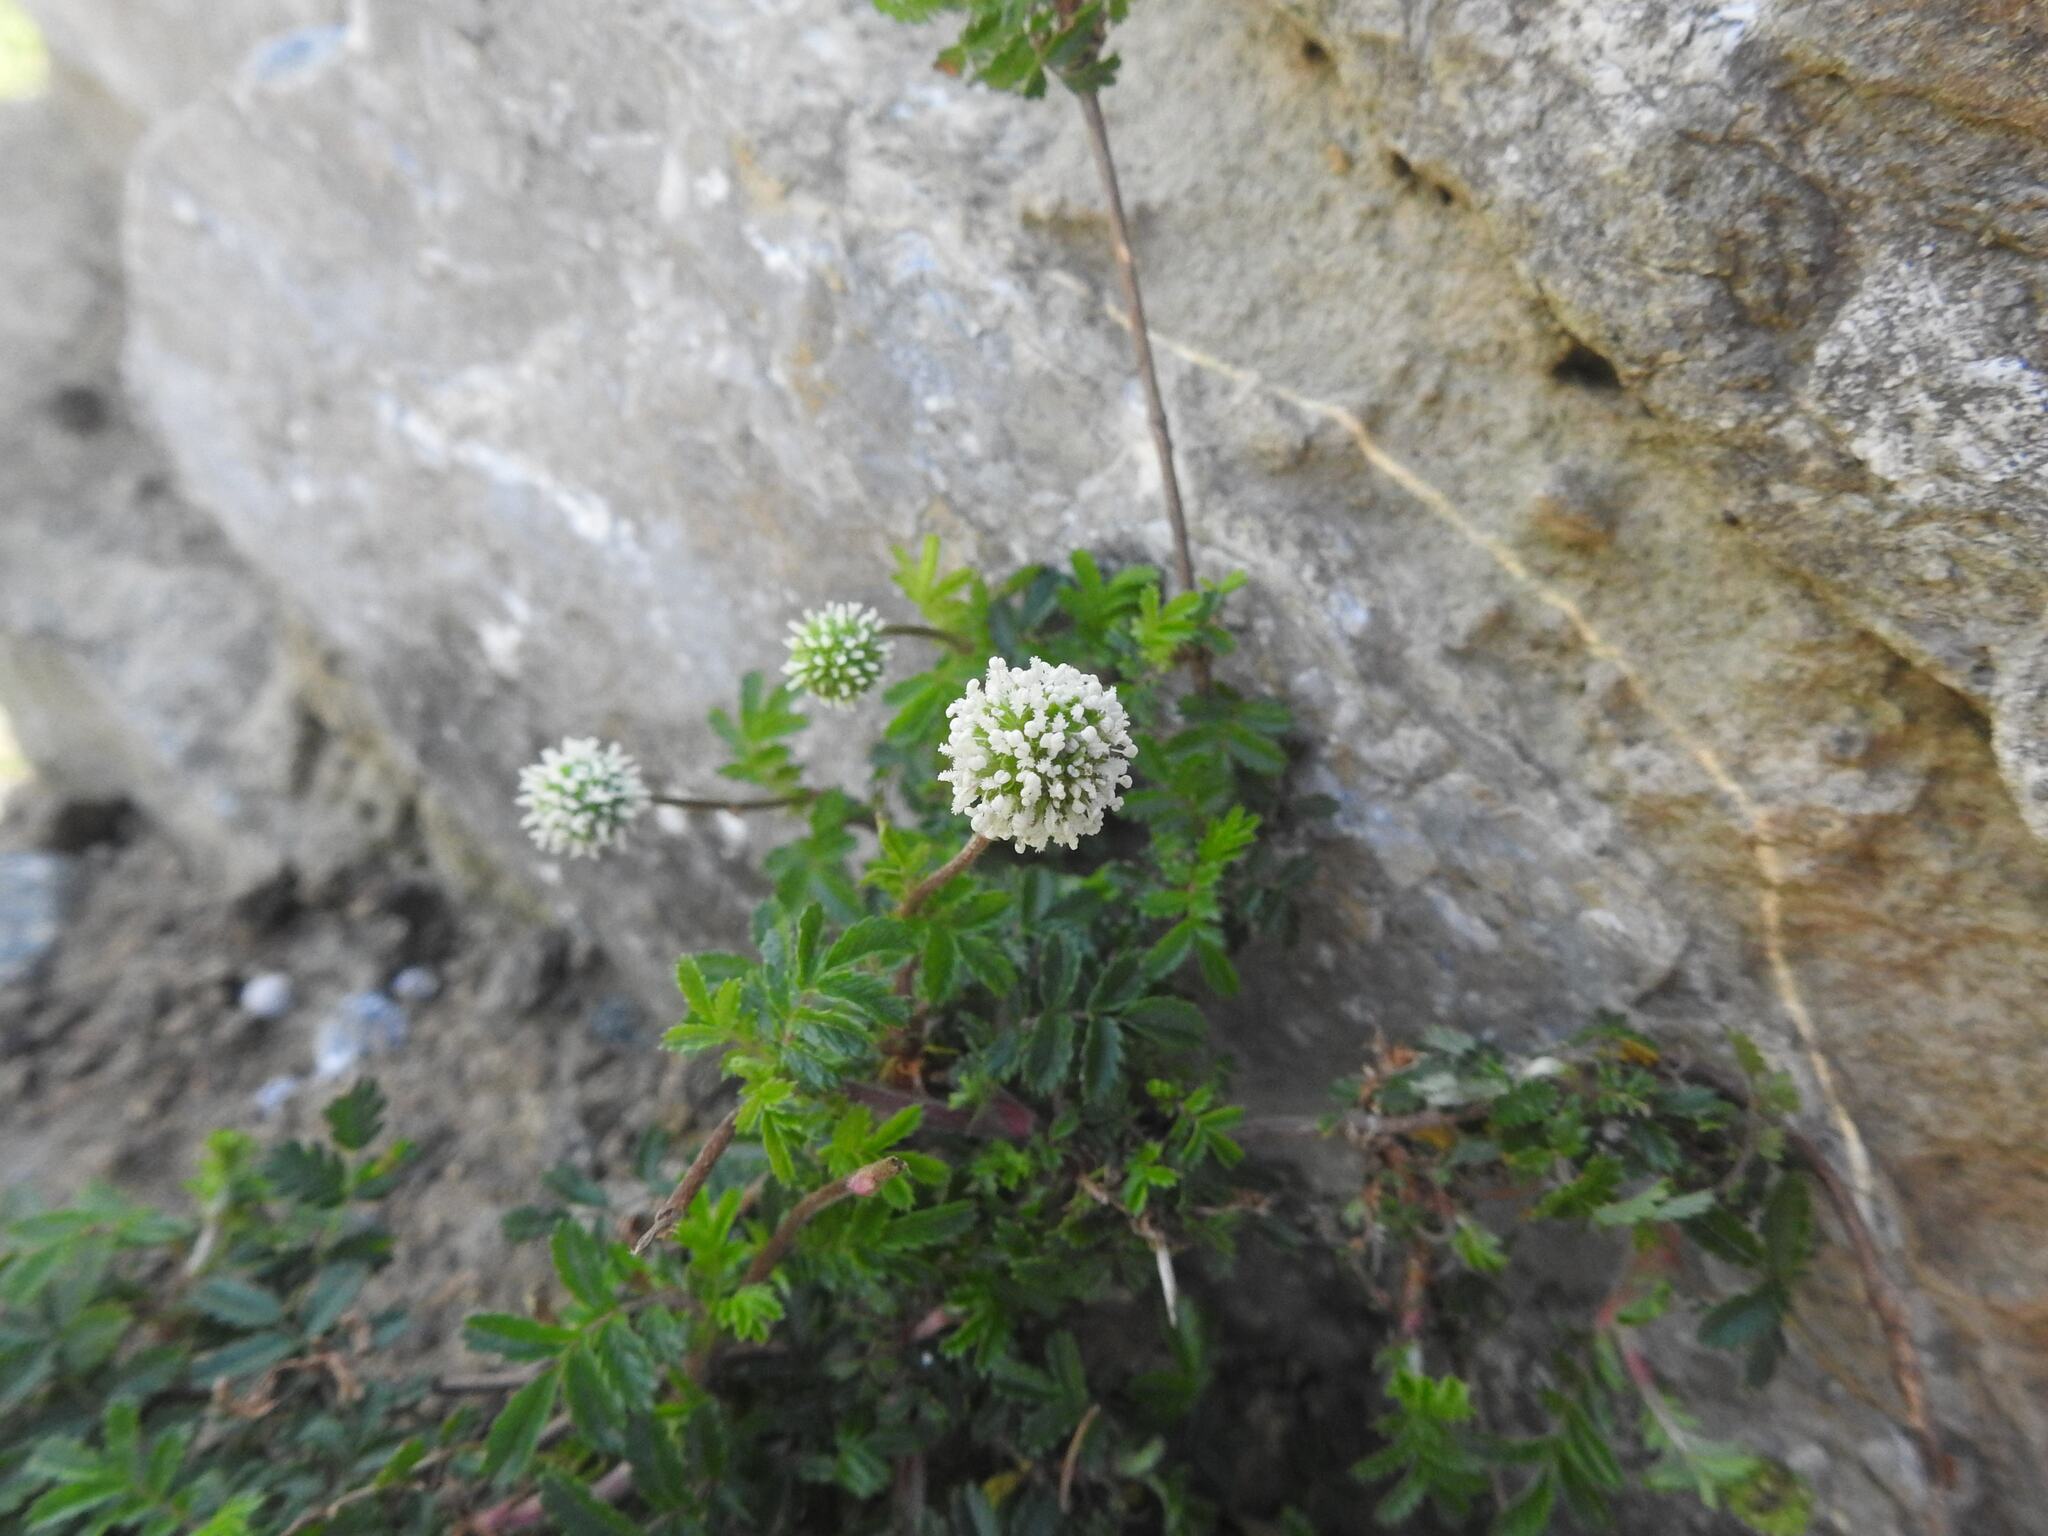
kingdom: Plantae
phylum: Tracheophyta
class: Magnoliopsida
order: Rosales
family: Rosaceae
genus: Acaena
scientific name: Acaena novae-zelandiae
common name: Pirri-pirri-bur
